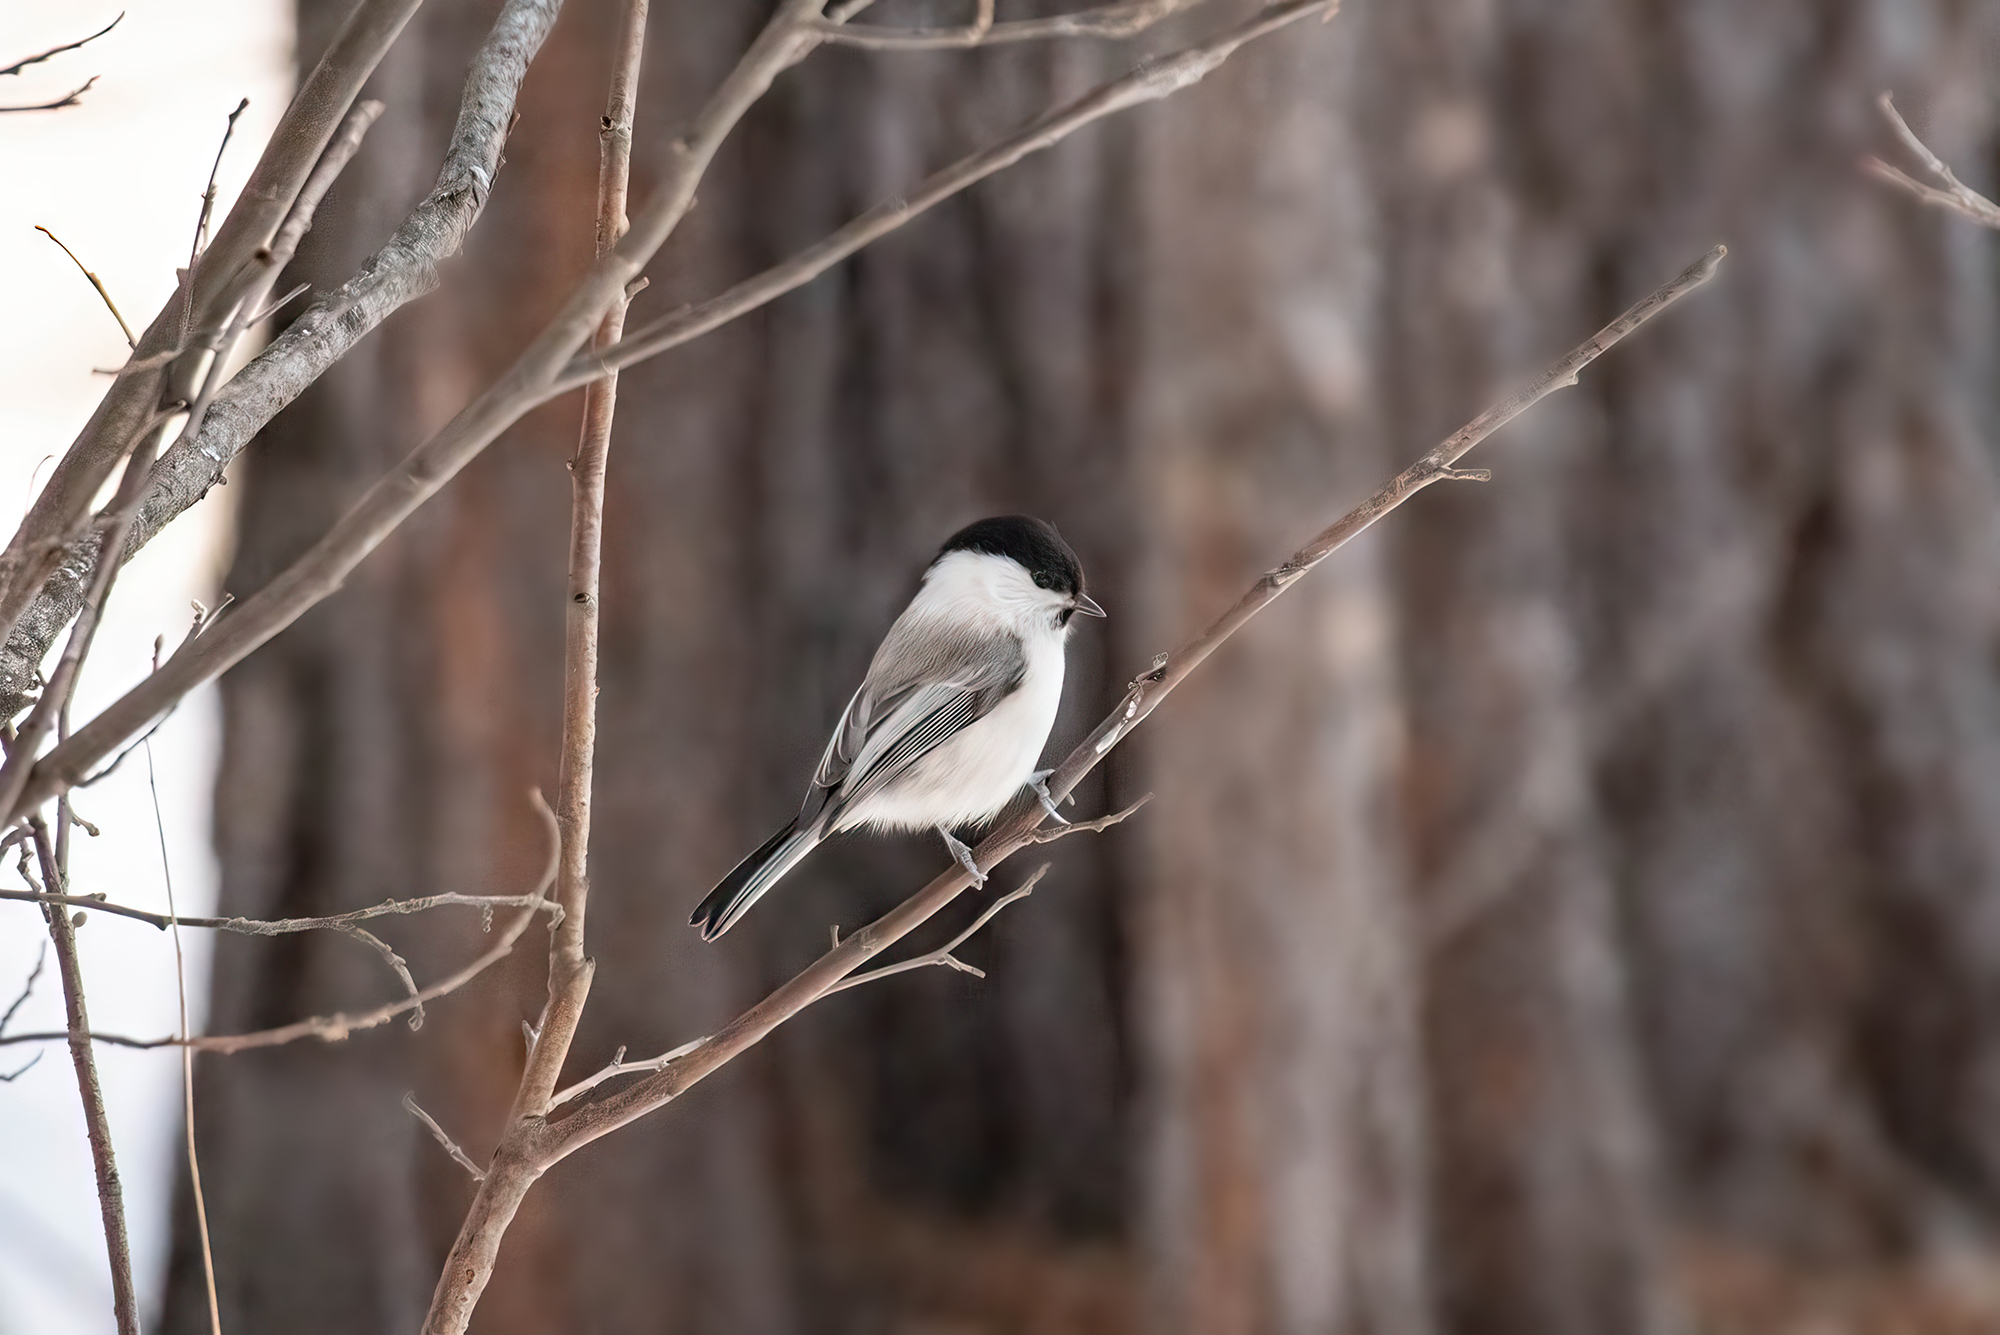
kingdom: Animalia
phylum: Chordata
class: Aves
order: Passeriformes
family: Paridae
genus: Poecile
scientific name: Poecile montanus
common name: Willow tit
